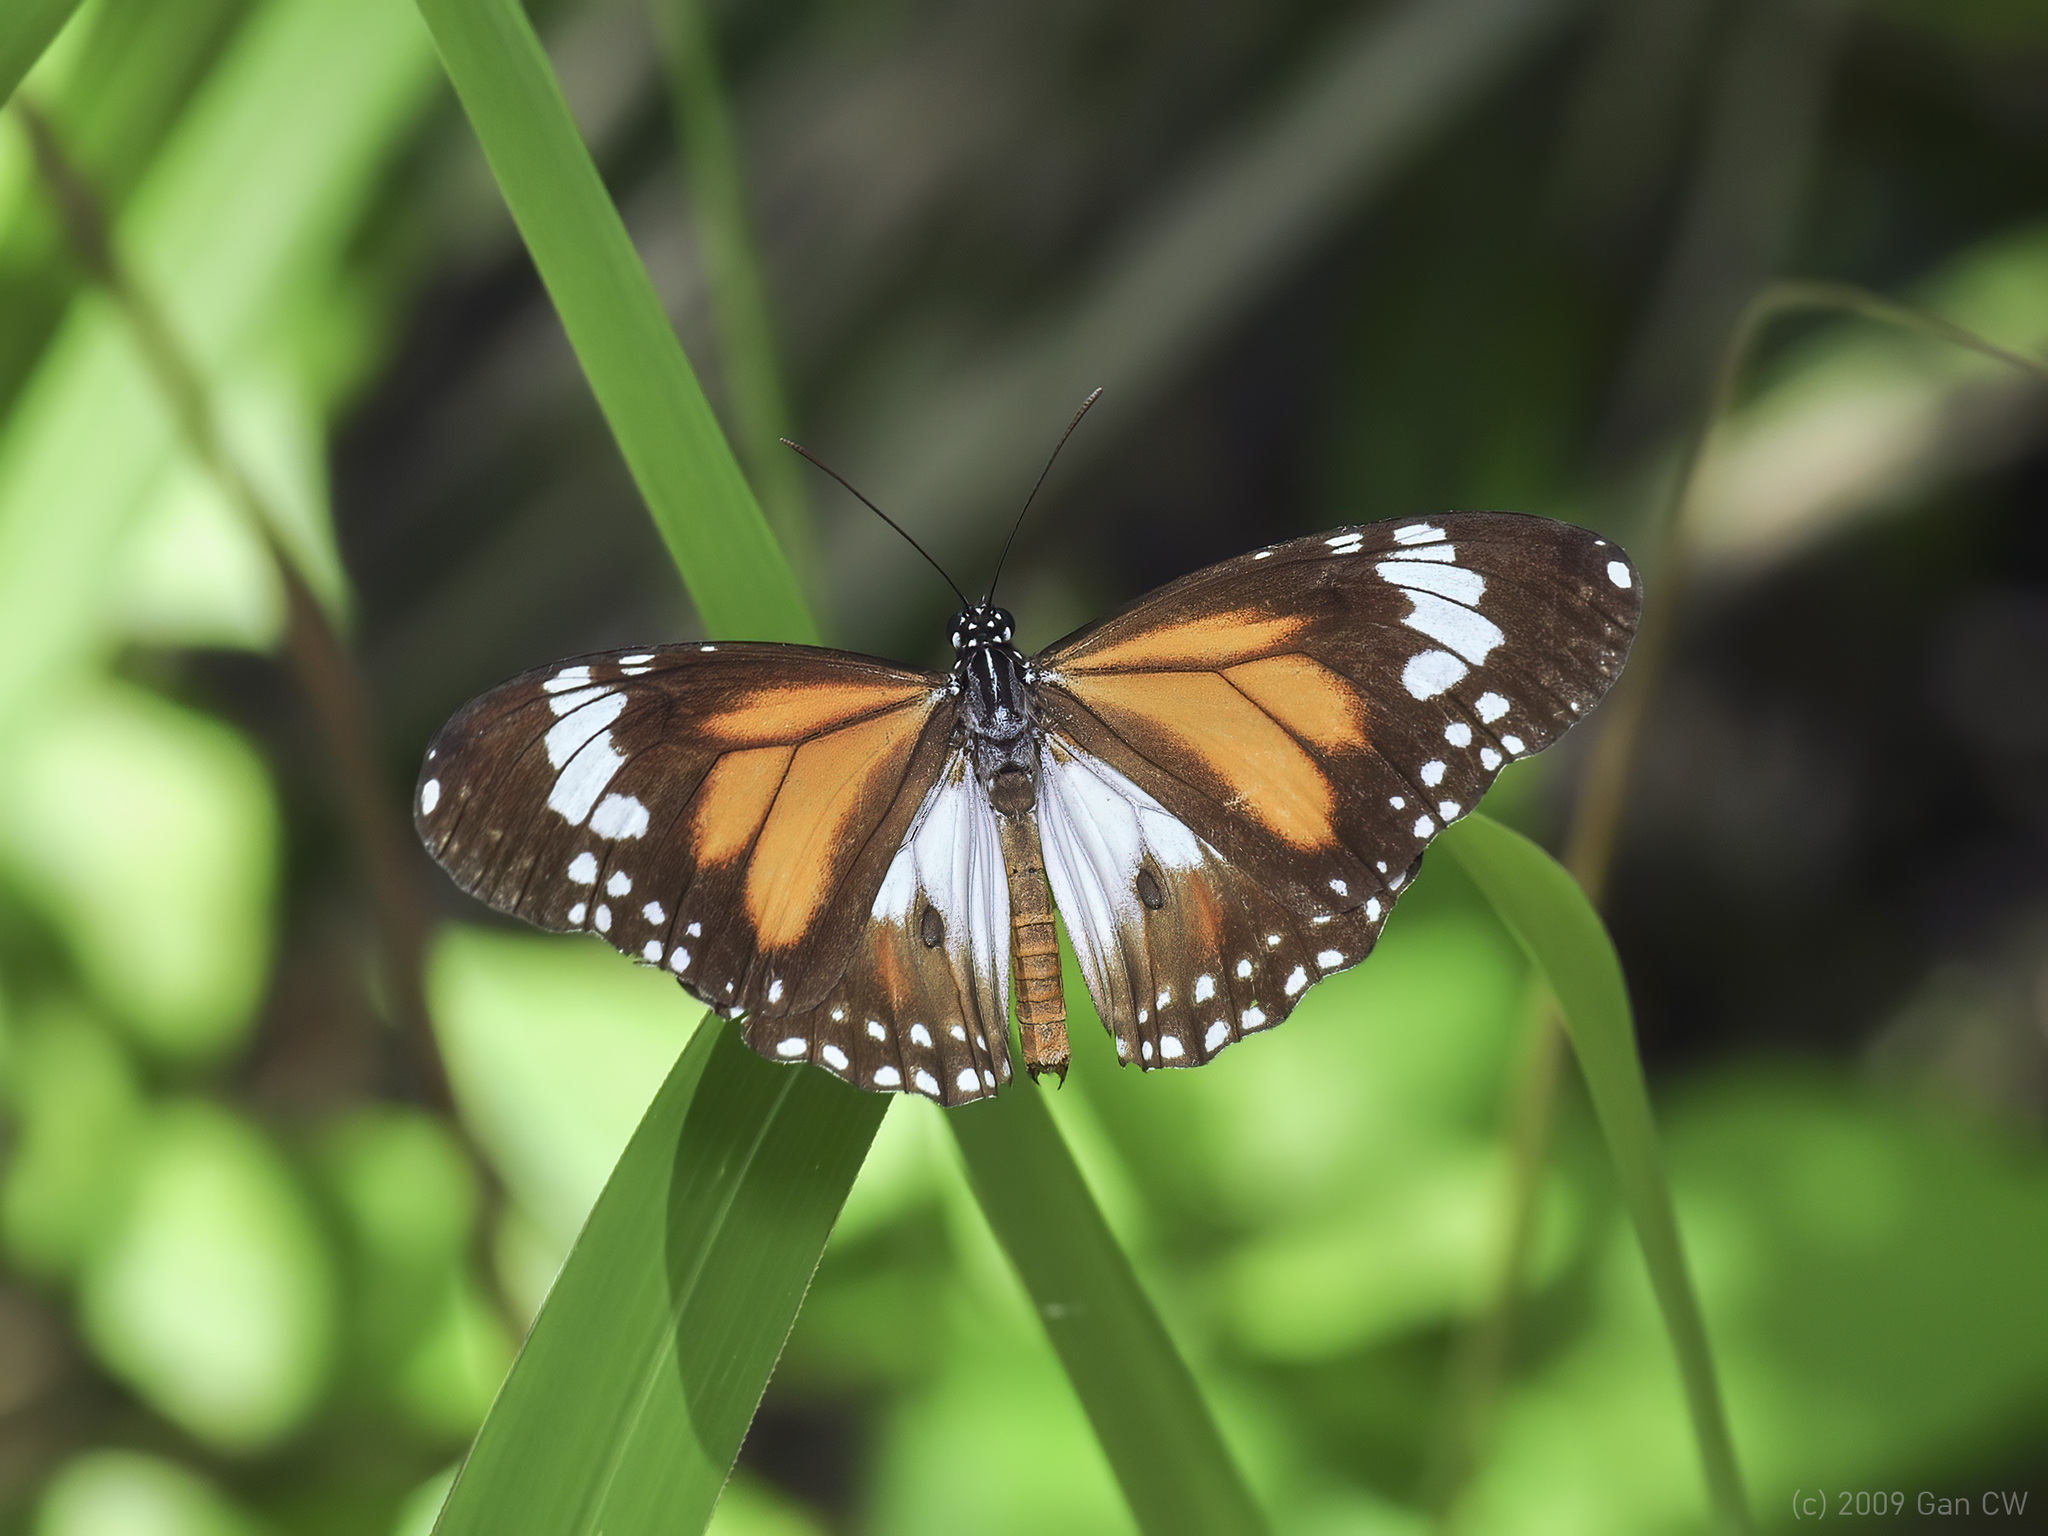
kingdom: Animalia
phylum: Arthropoda
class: Insecta
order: Lepidoptera
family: Nymphalidae
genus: Danaus
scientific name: Danaus affinis
